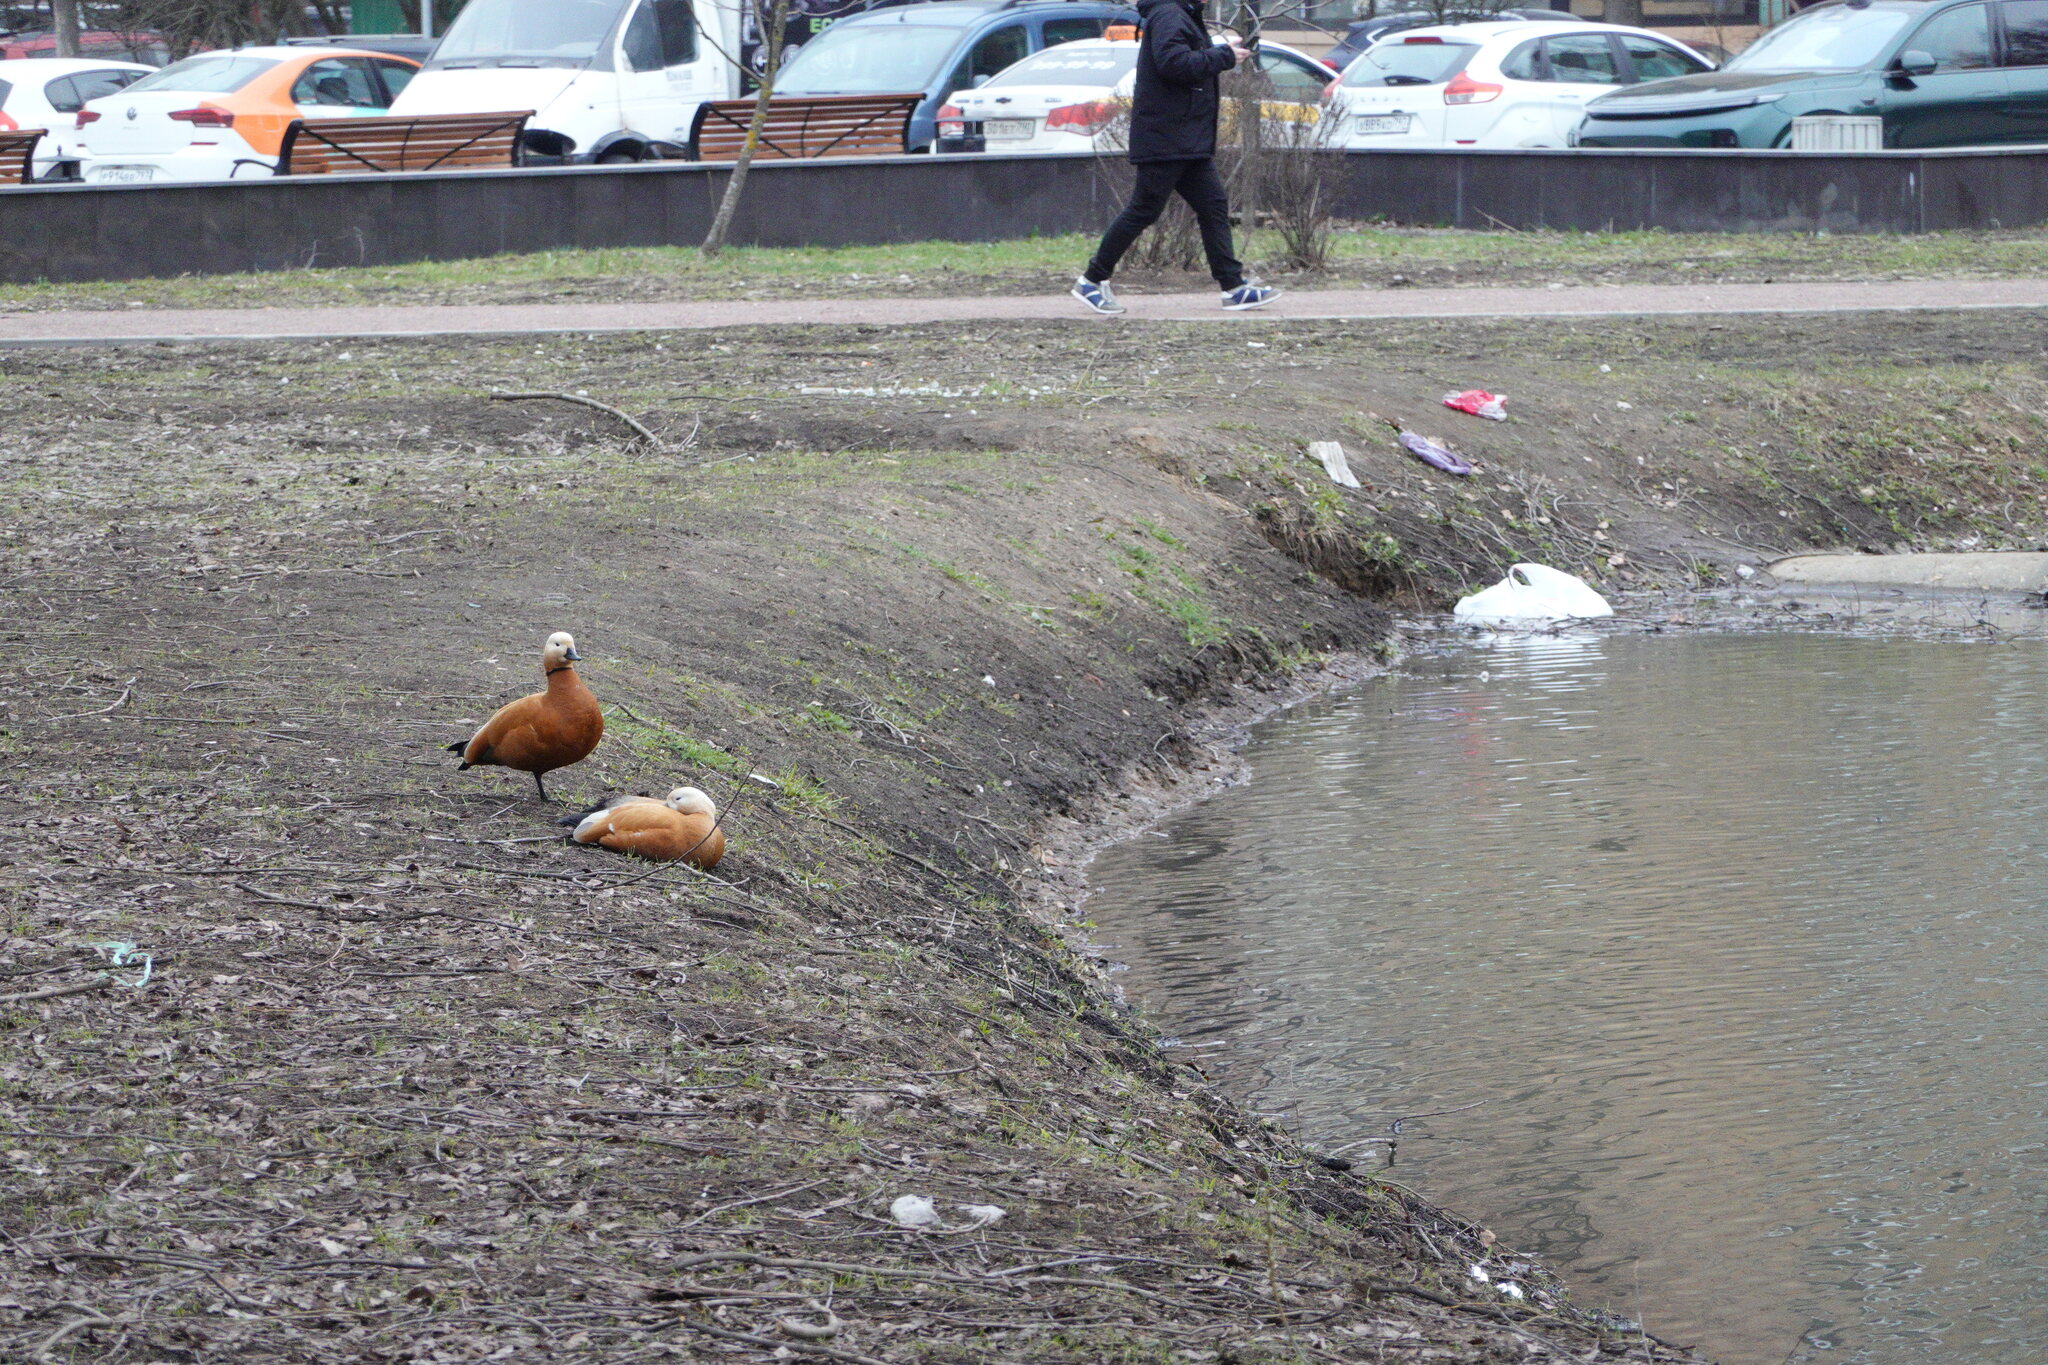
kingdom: Animalia
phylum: Chordata
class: Aves
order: Anseriformes
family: Anatidae
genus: Tadorna
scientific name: Tadorna ferruginea
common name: Ruddy shelduck
